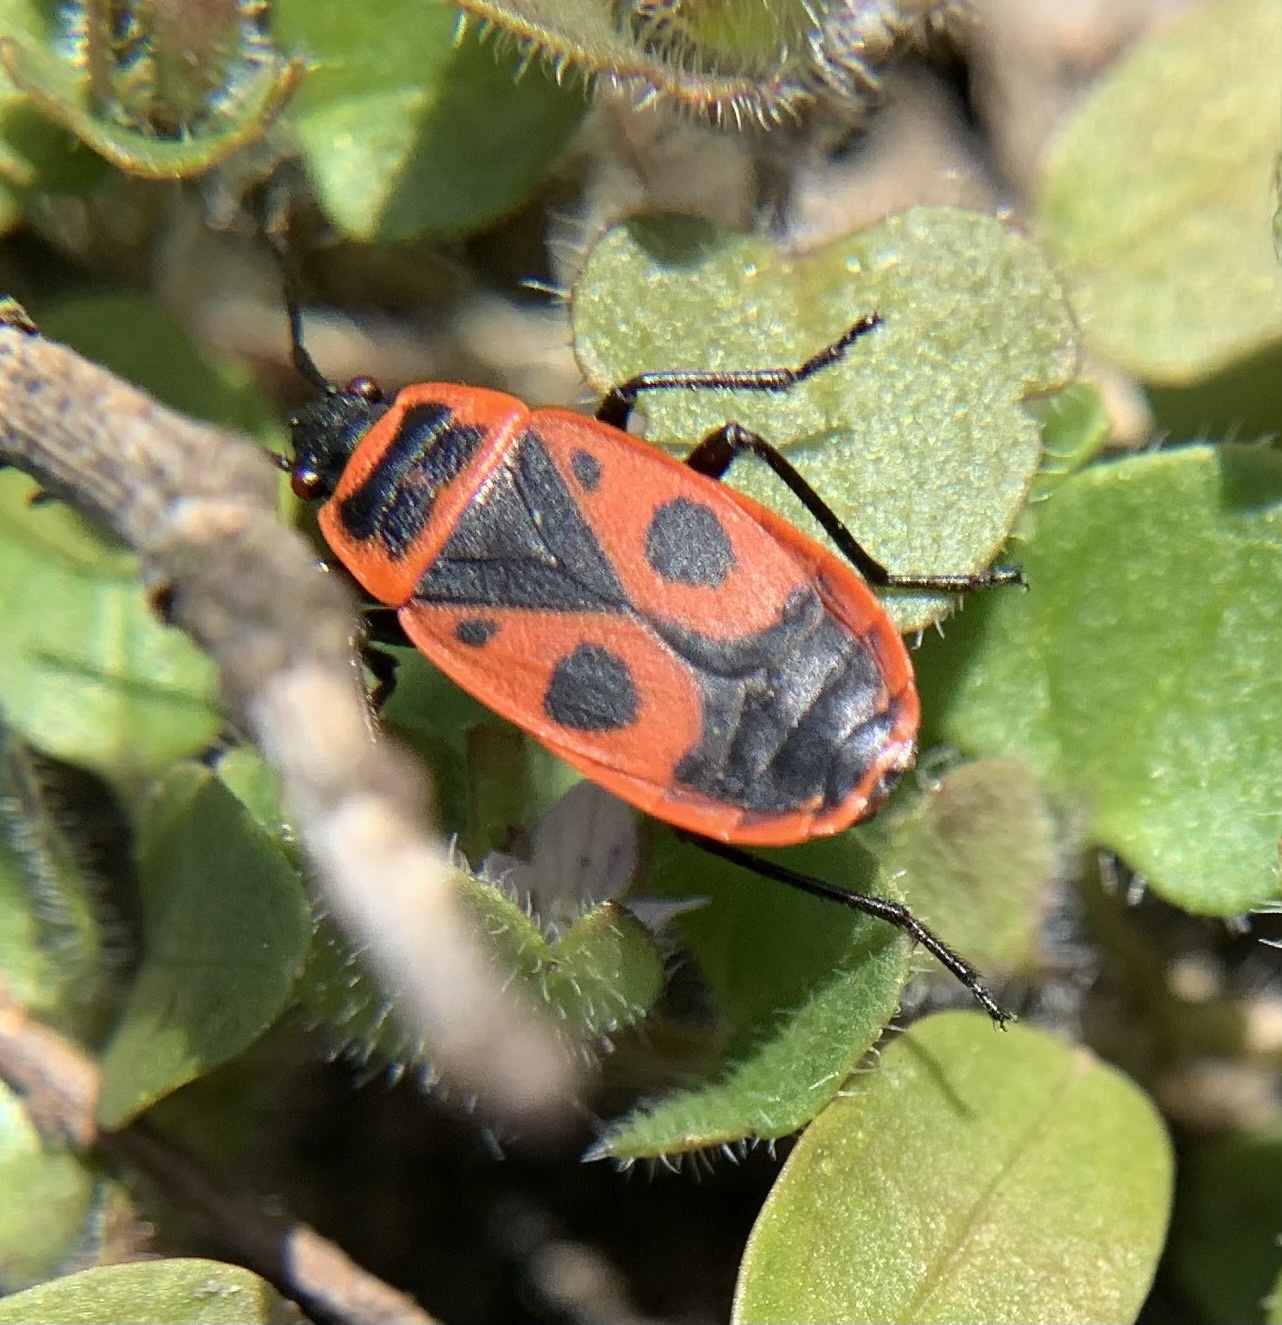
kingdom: Animalia
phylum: Arthropoda
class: Insecta
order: Hemiptera
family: Pyrrhocoridae
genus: Pyrrhocoris
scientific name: Pyrrhocoris apterus
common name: Firebug
